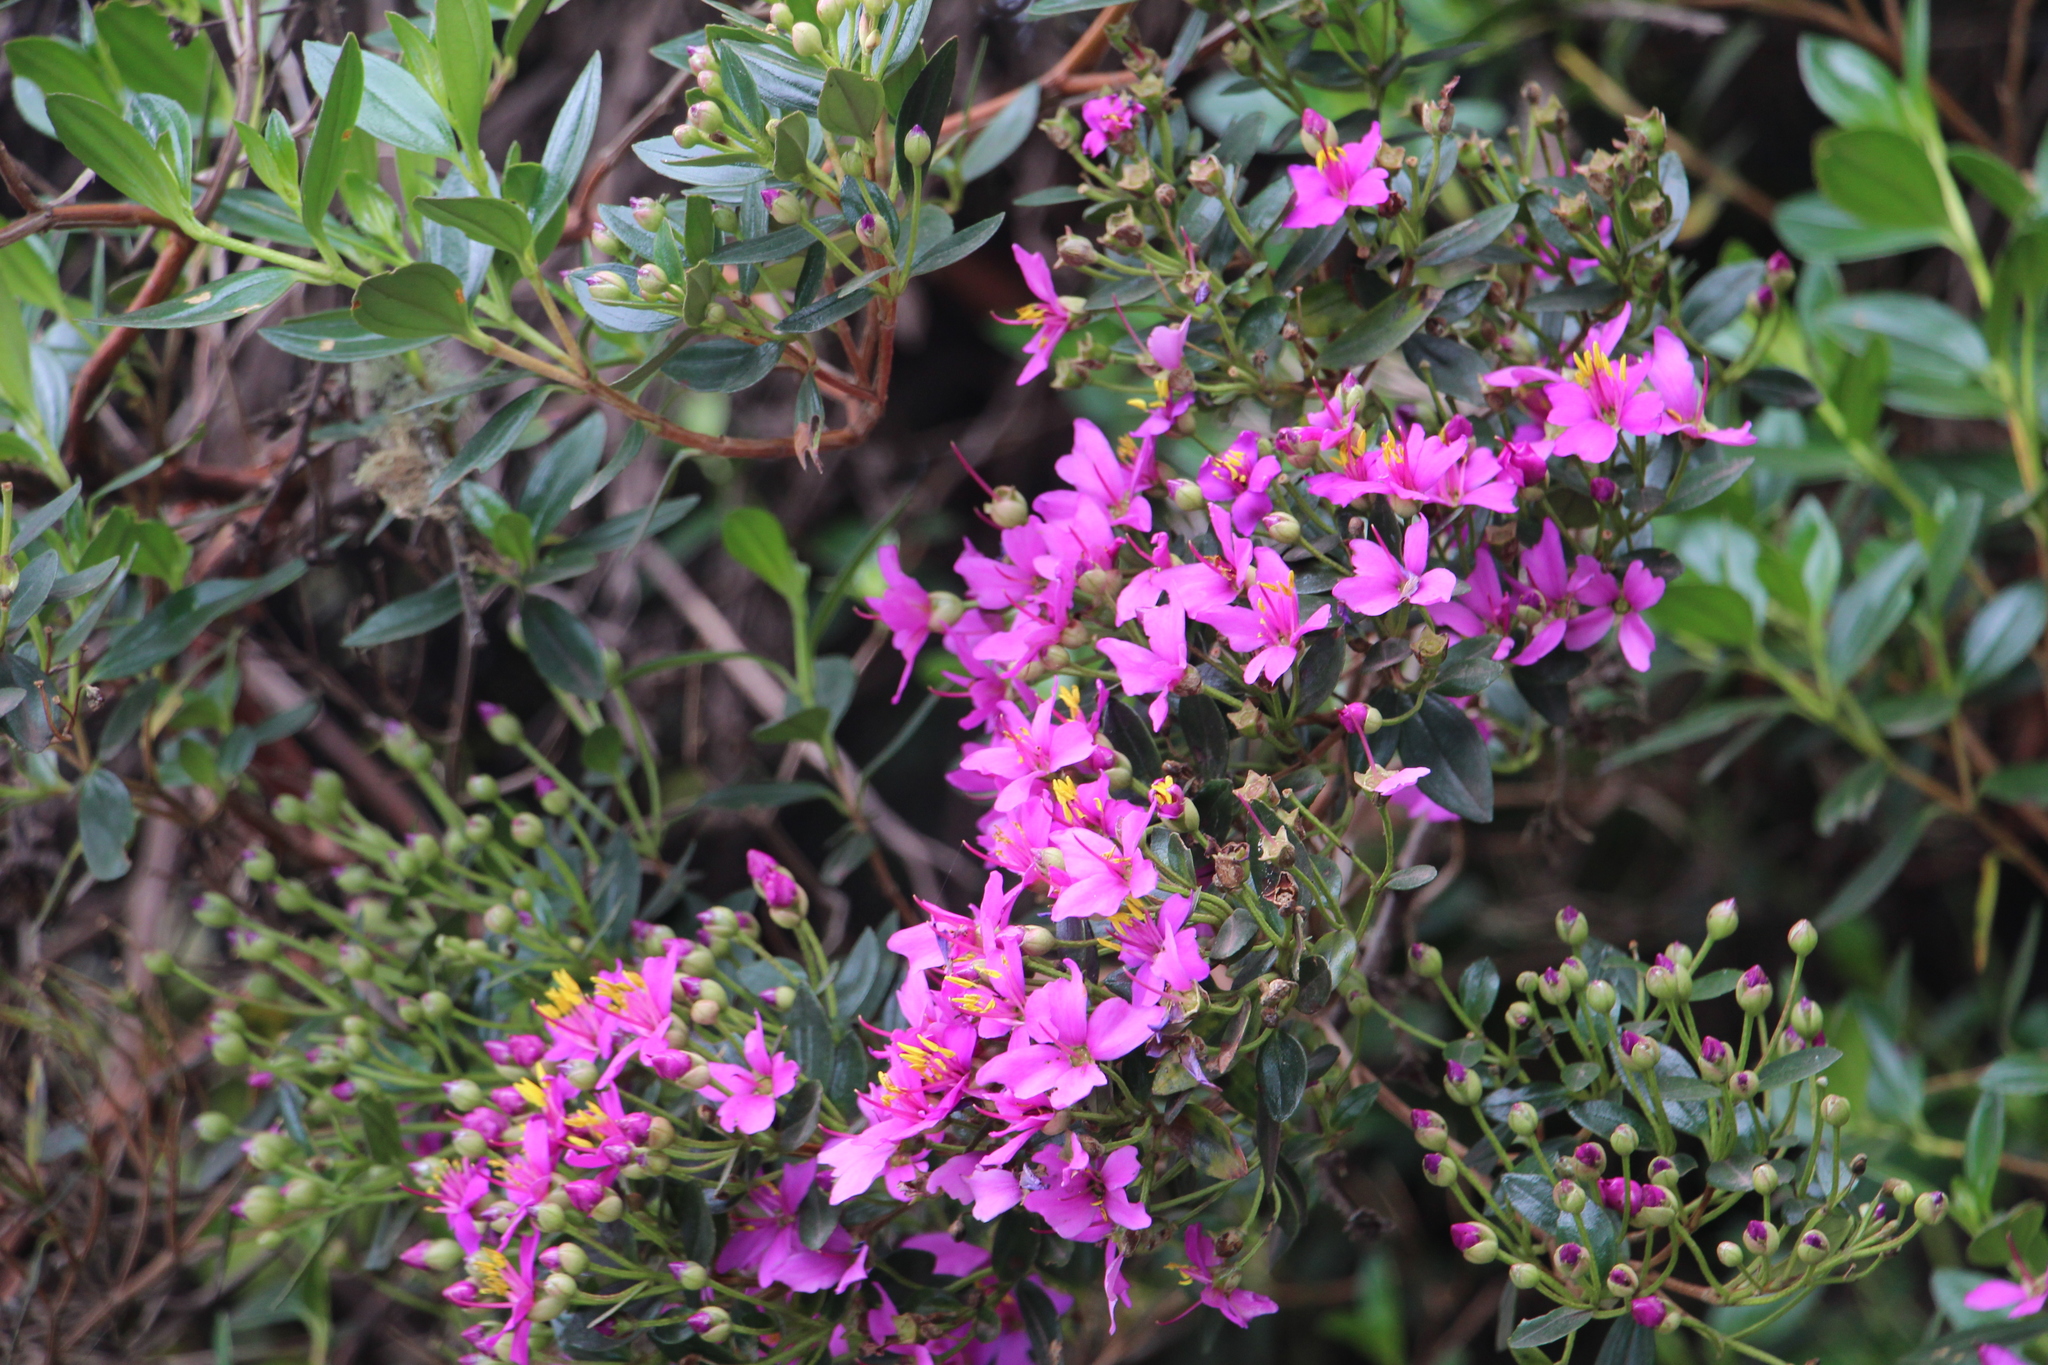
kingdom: Plantae
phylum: Tracheophyta
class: Magnoliopsida
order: Myrtales
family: Melastomataceae
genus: Bucquetia
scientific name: Bucquetia glutinosa
